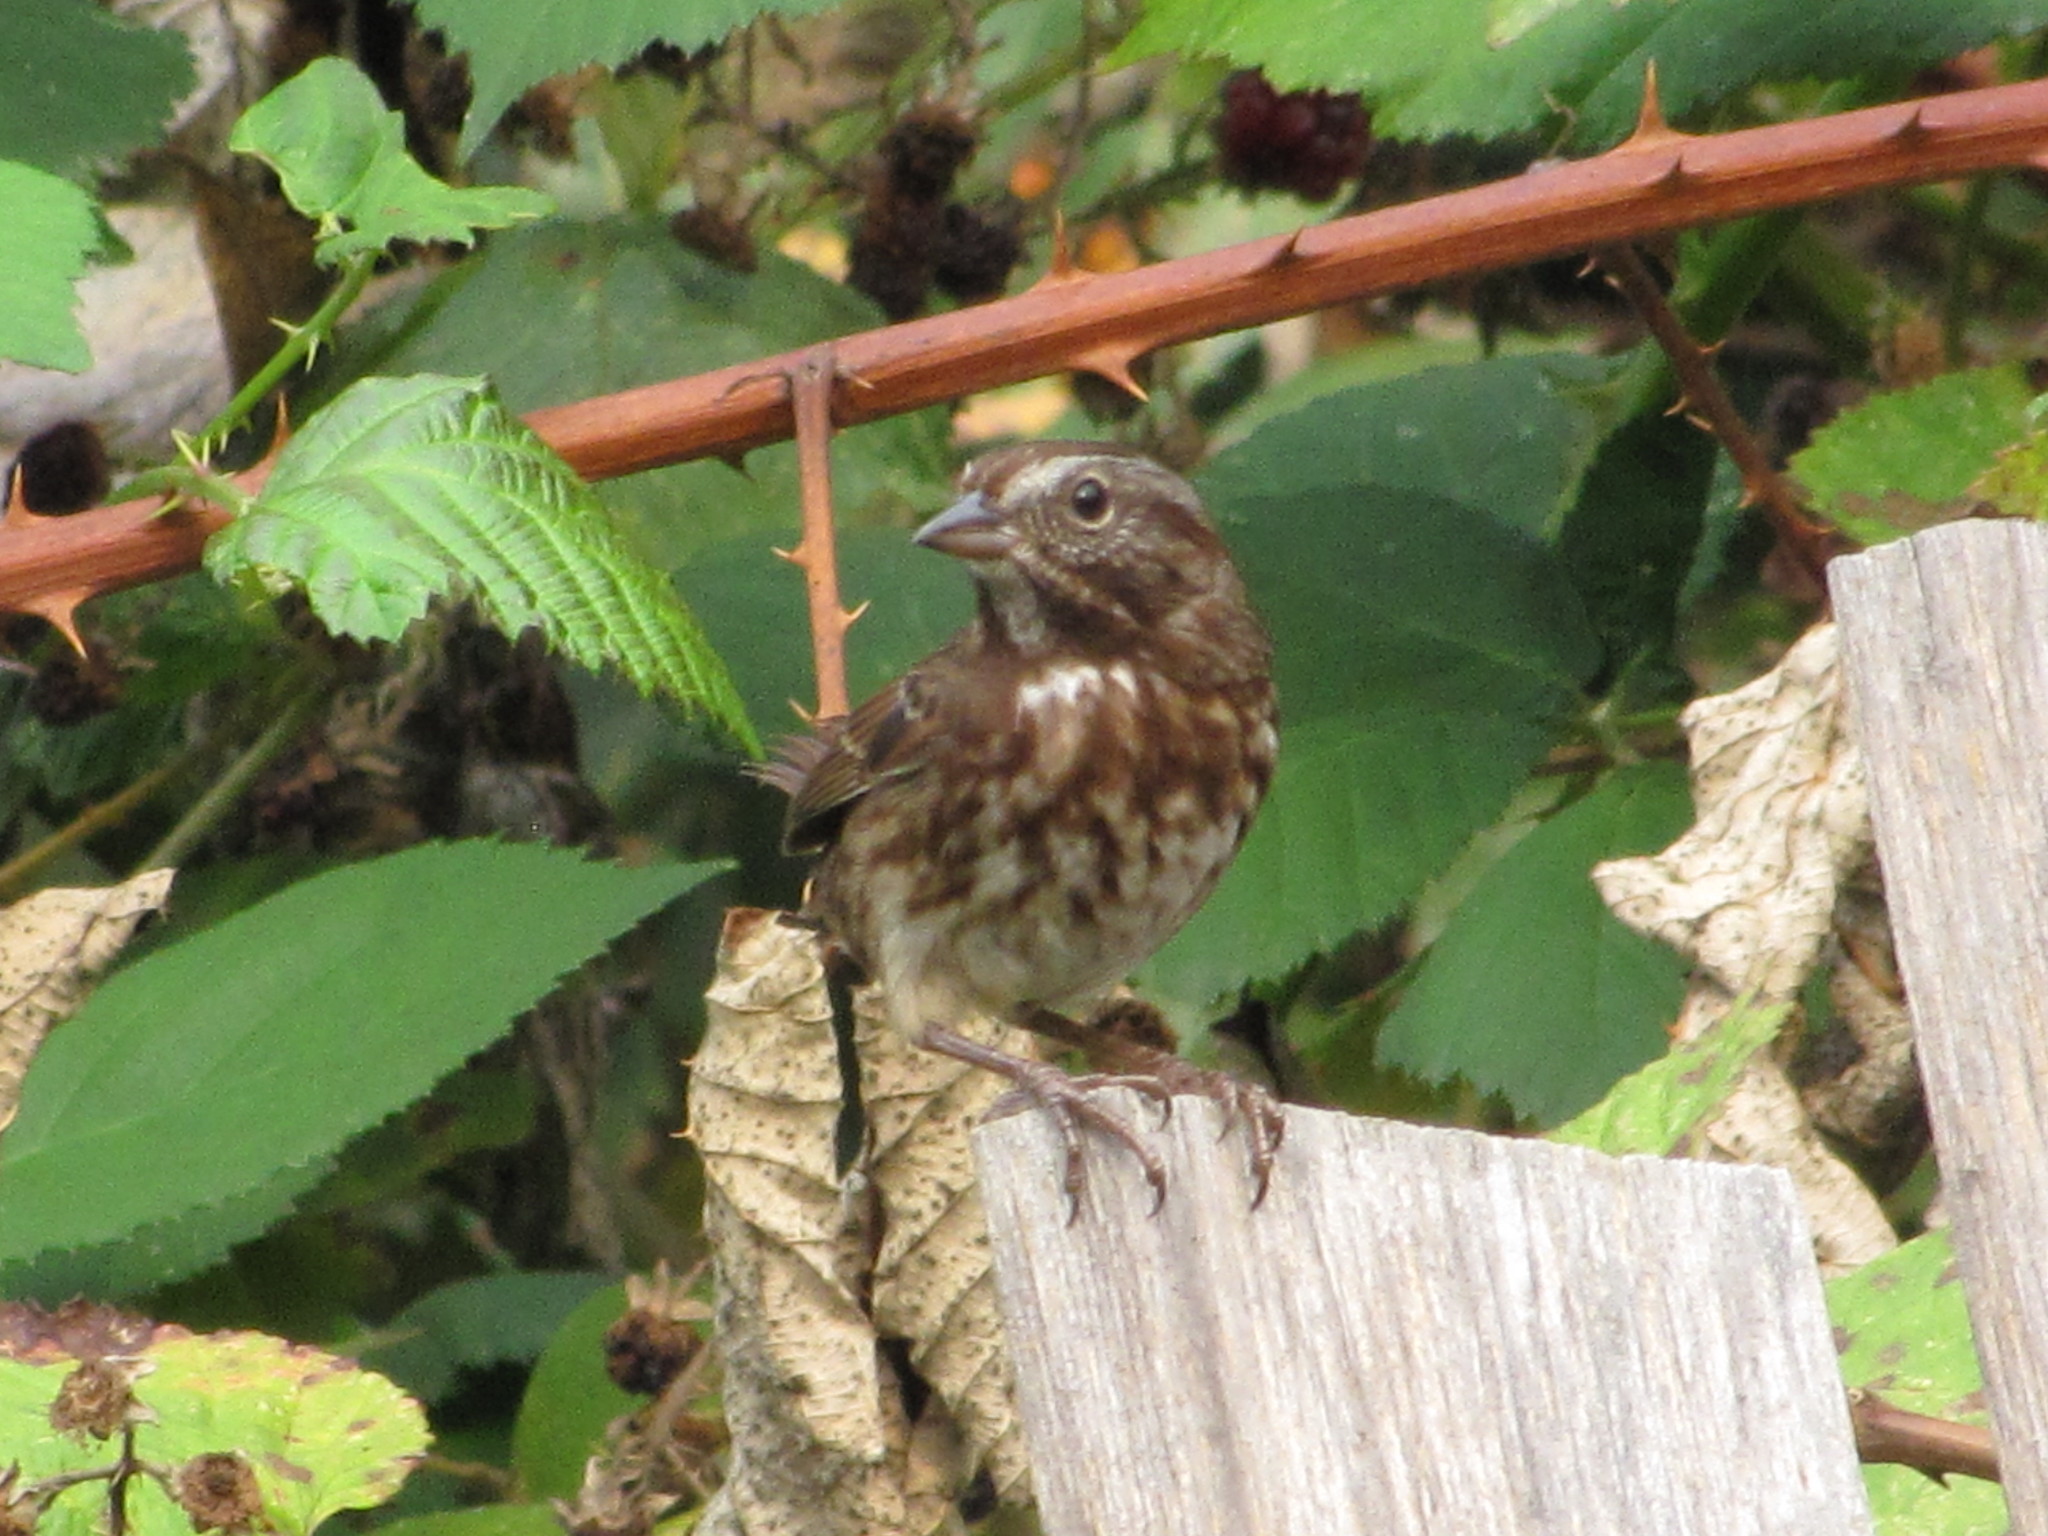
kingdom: Animalia
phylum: Chordata
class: Aves
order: Passeriformes
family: Passerellidae
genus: Melospiza
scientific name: Melospiza melodia
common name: Song sparrow
